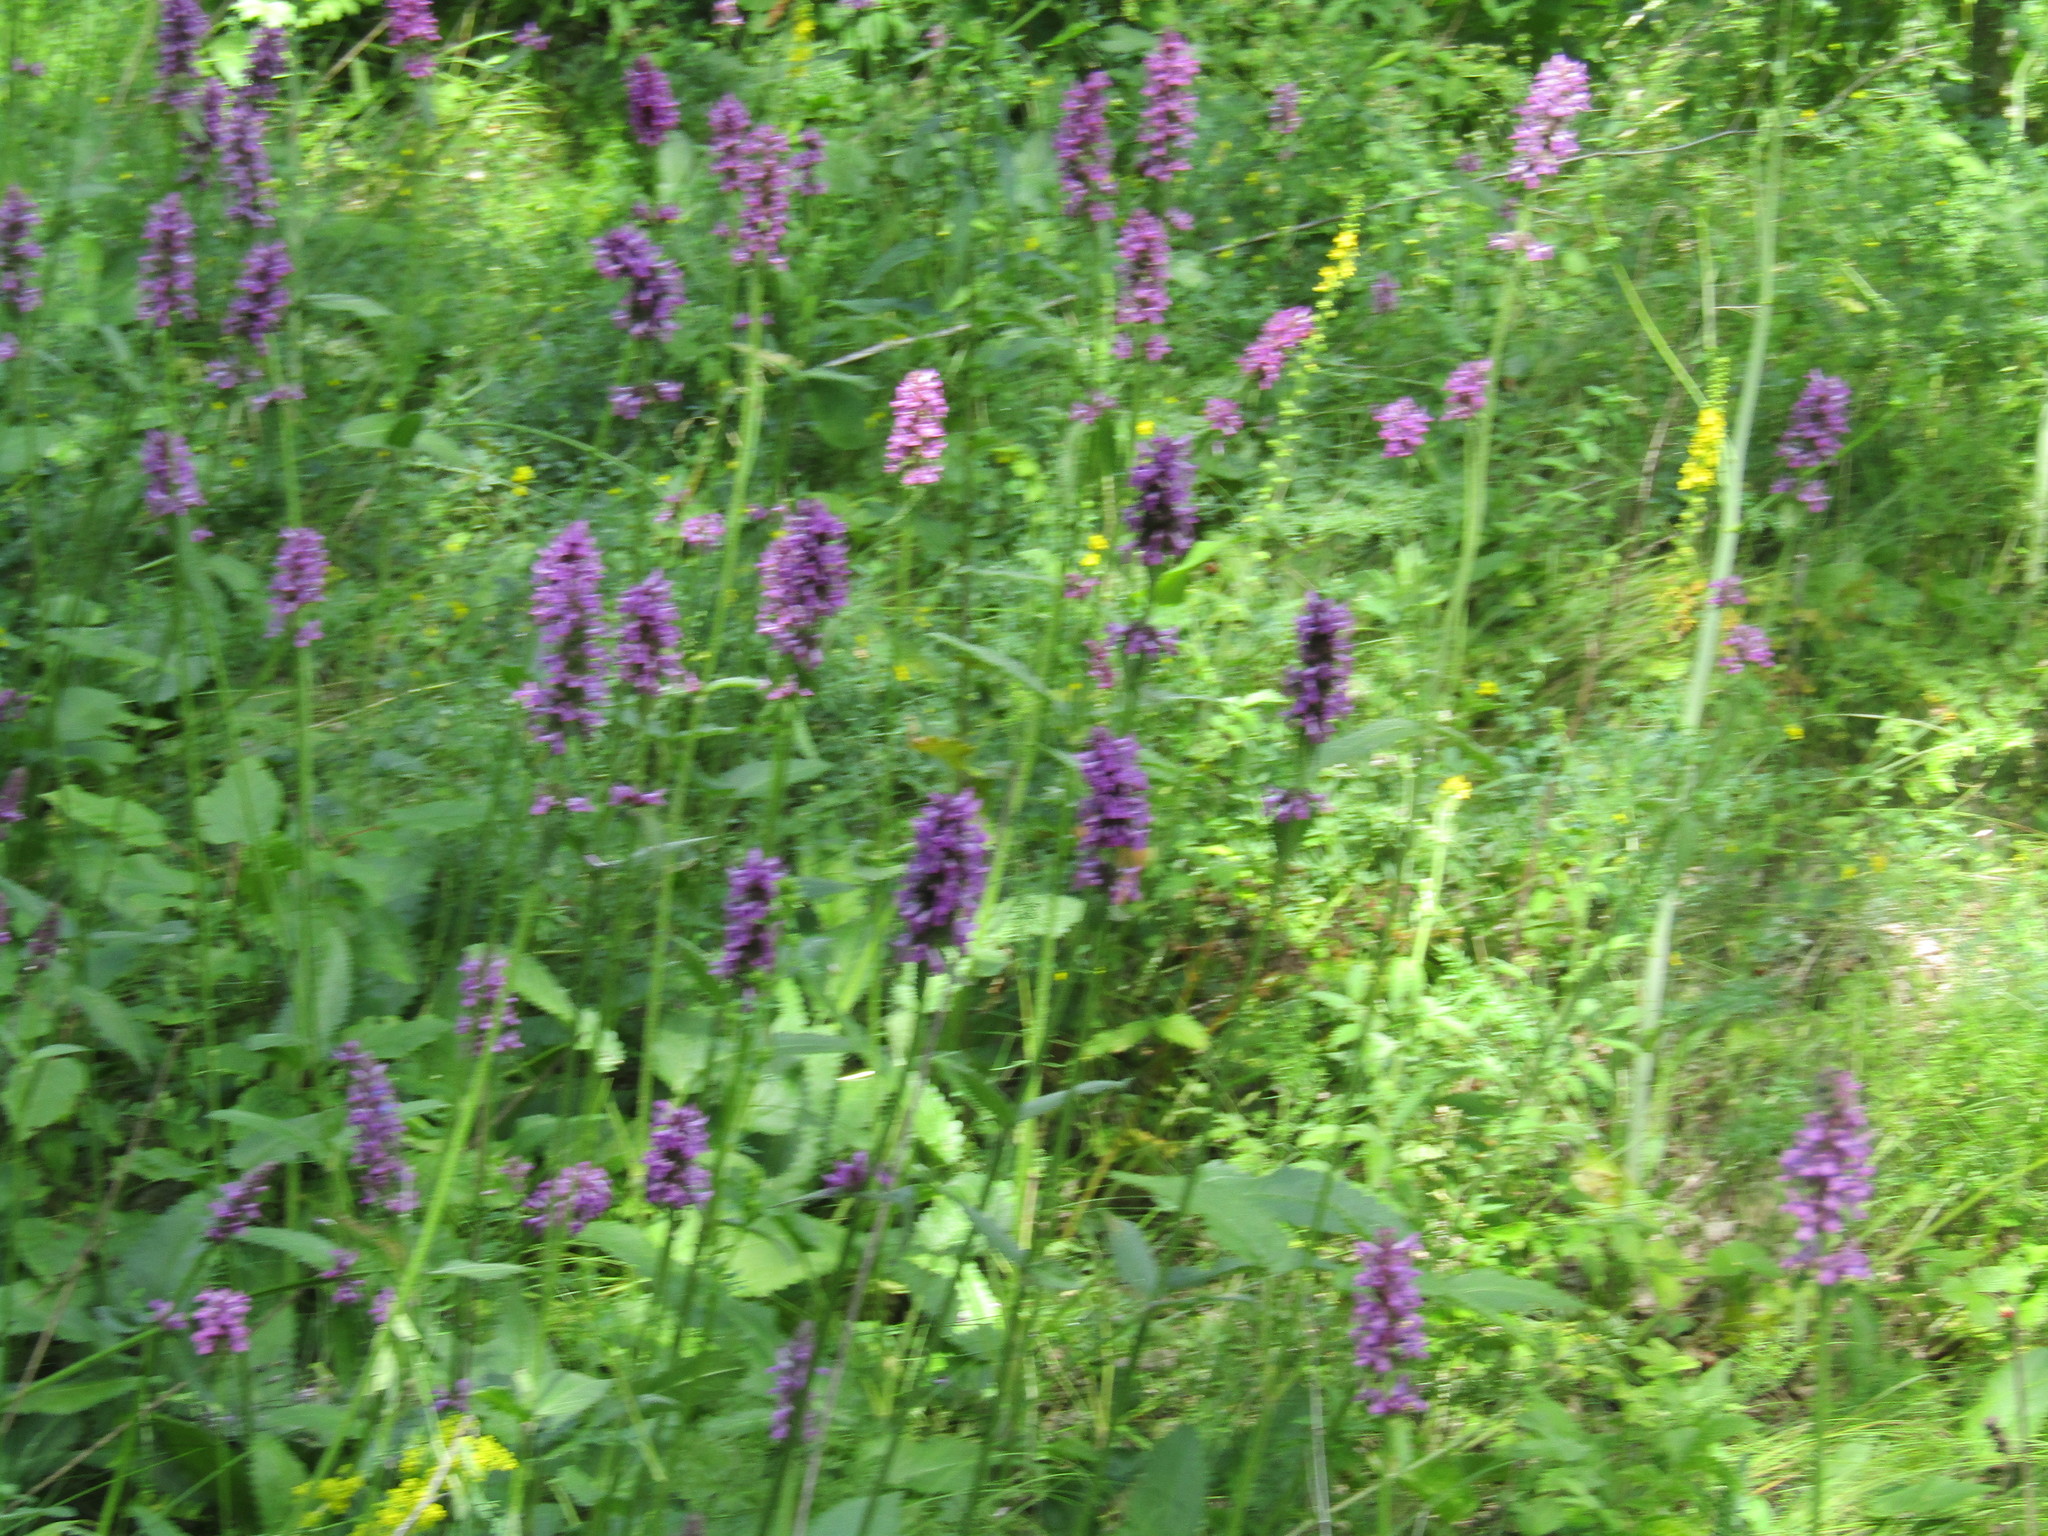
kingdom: Plantae
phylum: Tracheophyta
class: Magnoliopsida
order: Lamiales
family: Lamiaceae
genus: Betonica
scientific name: Betonica officinalis
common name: Bishop's-wort
